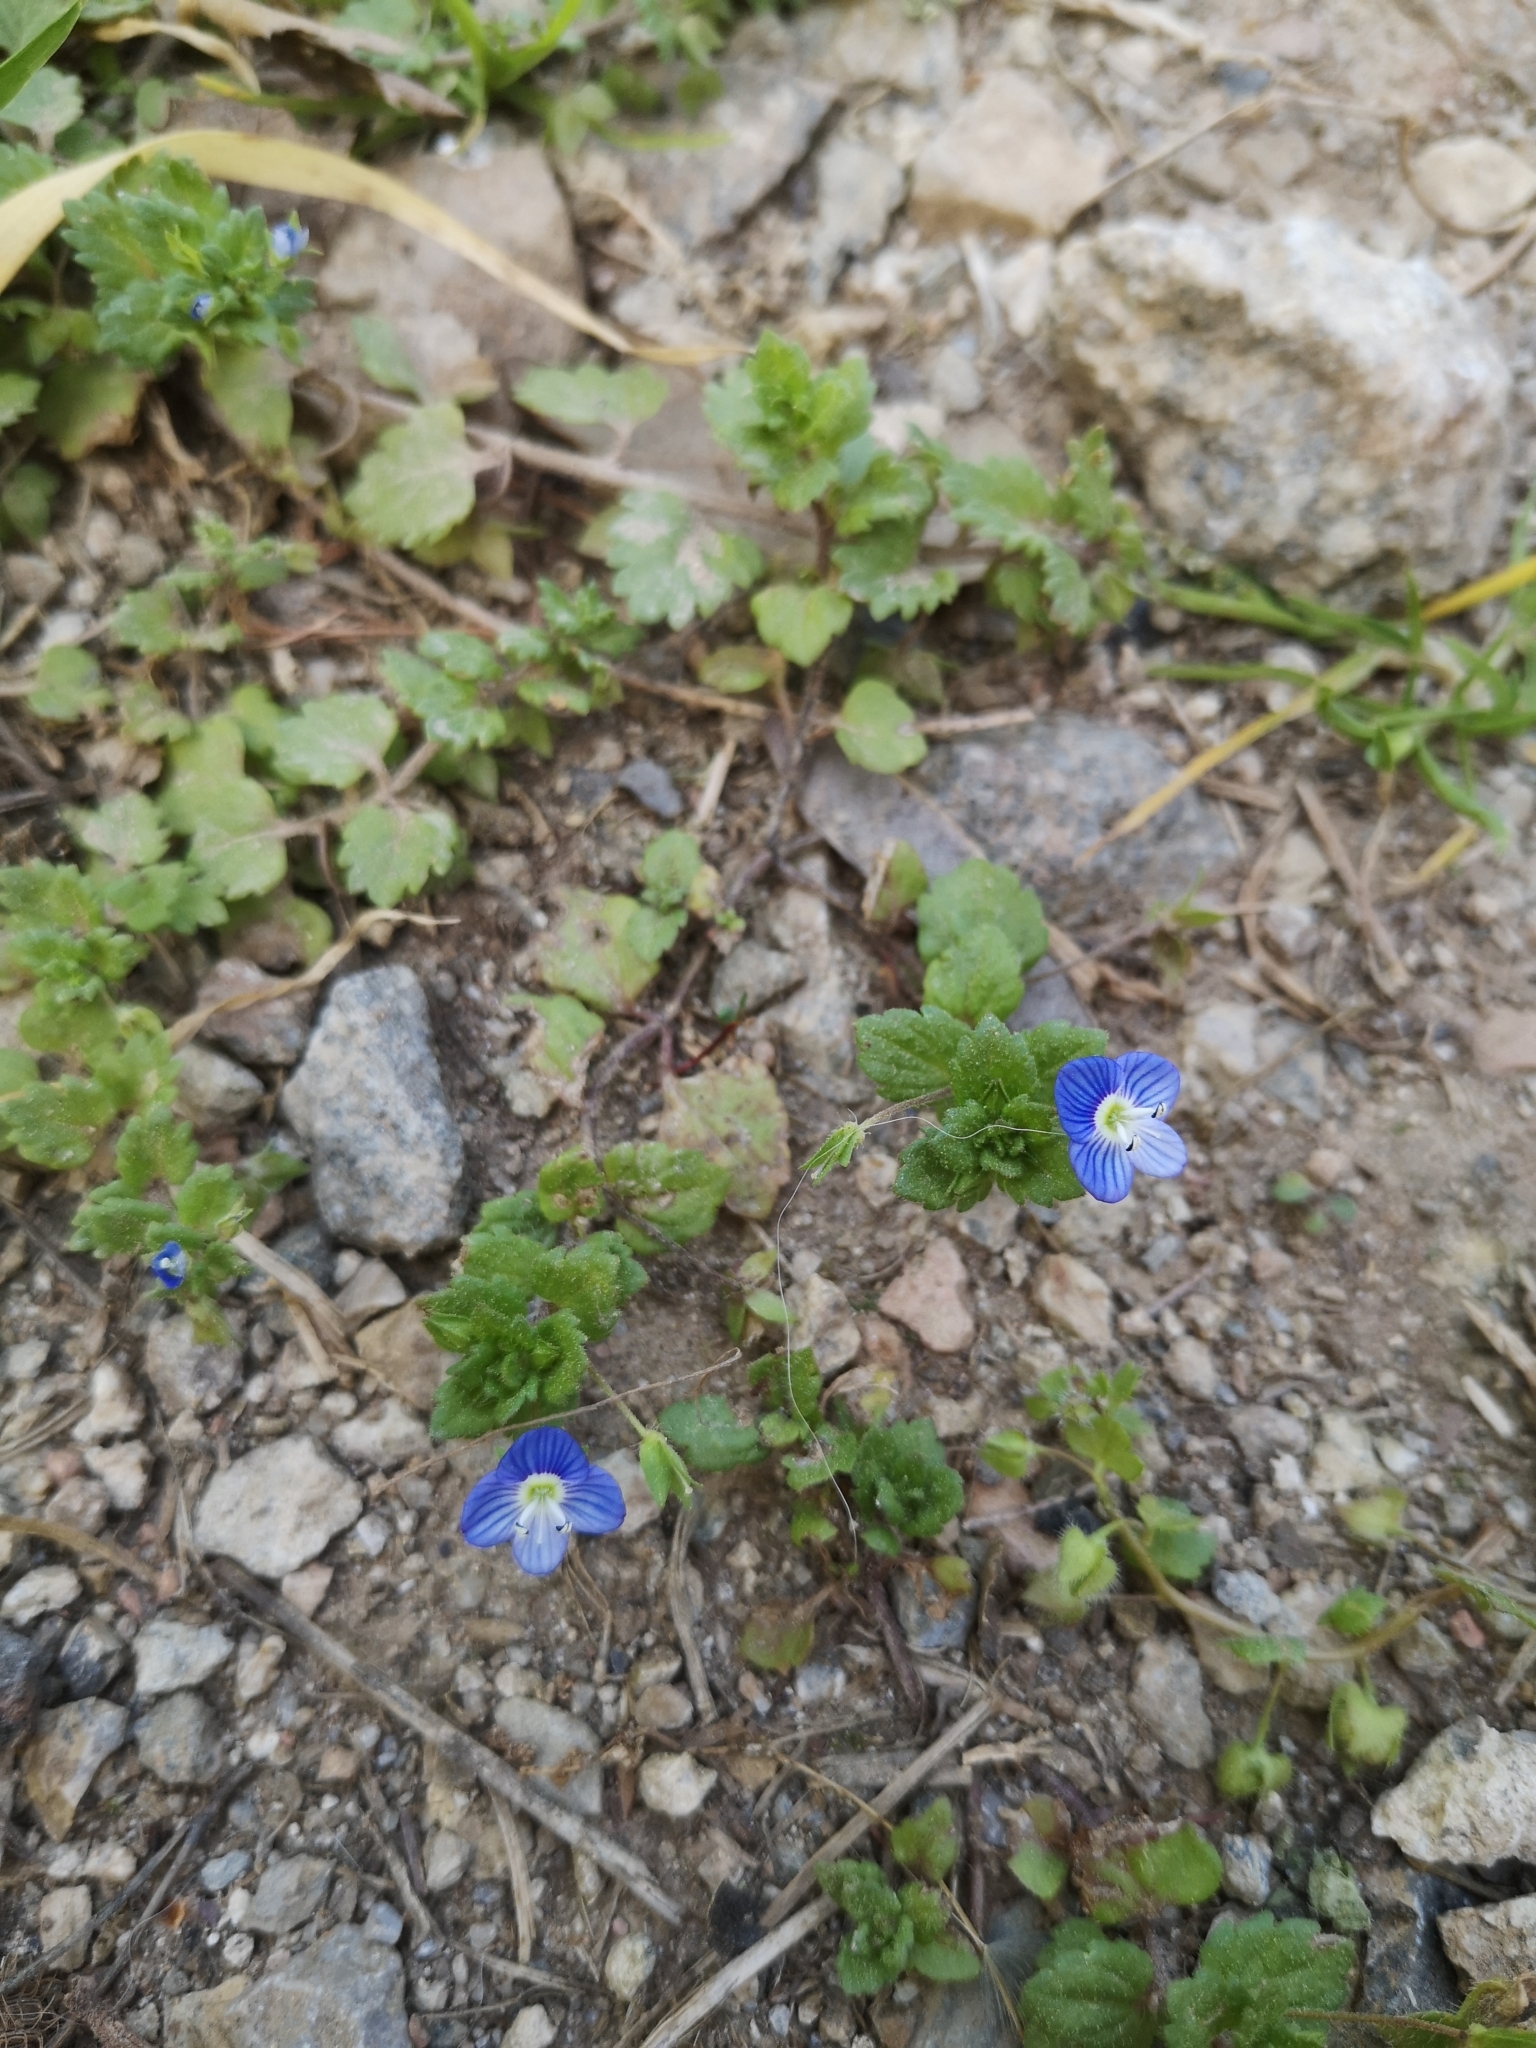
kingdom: Plantae
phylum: Tracheophyta
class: Magnoliopsida
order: Lamiales
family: Plantaginaceae
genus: Veronica
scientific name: Veronica persica
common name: Common field-speedwell
